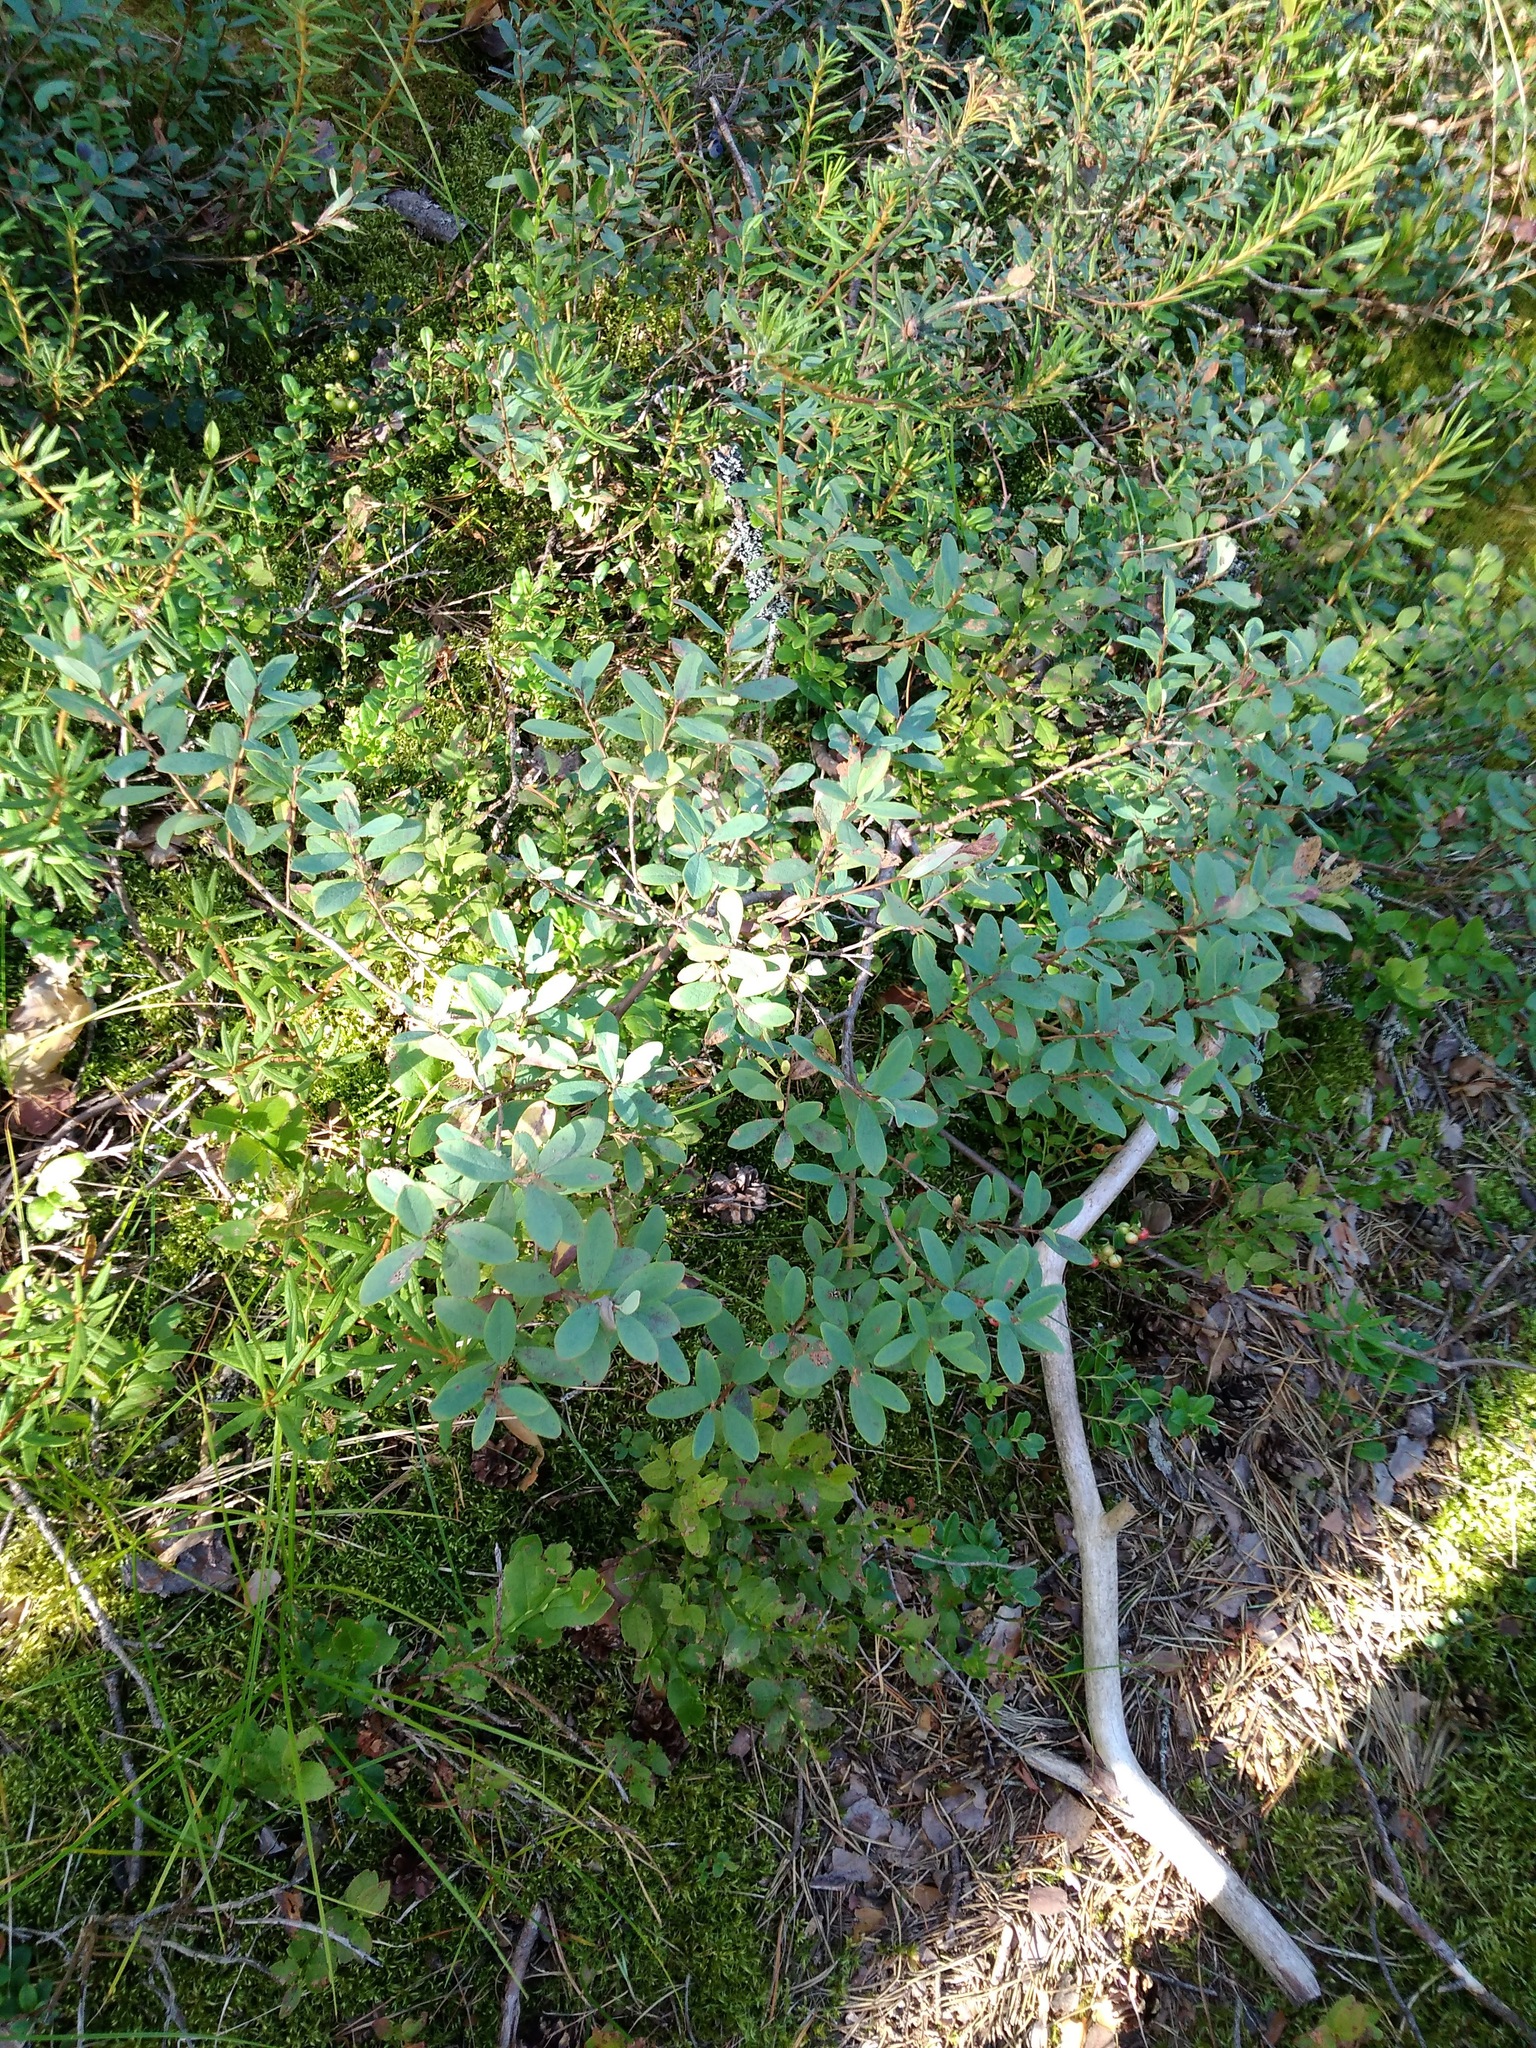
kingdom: Plantae
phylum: Tracheophyta
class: Magnoliopsida
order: Ericales
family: Ericaceae
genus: Vaccinium
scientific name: Vaccinium uliginosum
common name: Bog bilberry
